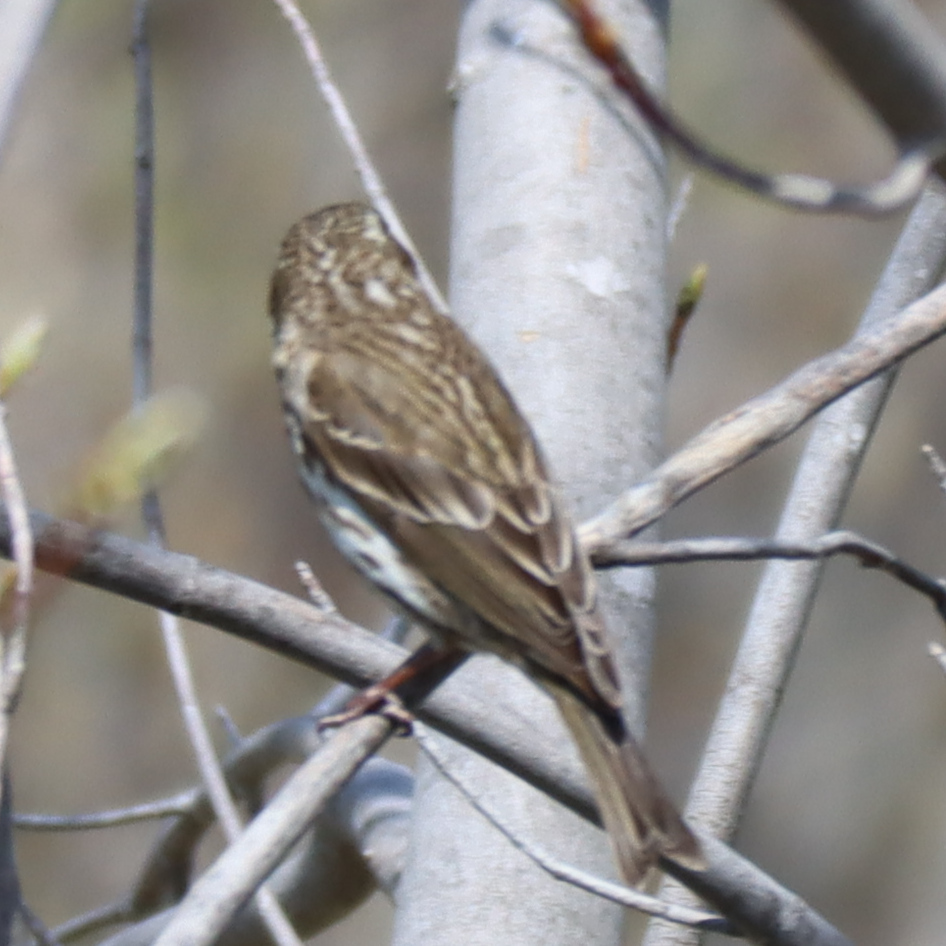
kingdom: Animalia
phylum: Chordata
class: Aves
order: Passeriformes
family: Fringillidae
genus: Haemorhous
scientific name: Haemorhous purpureus
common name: Purple finch
